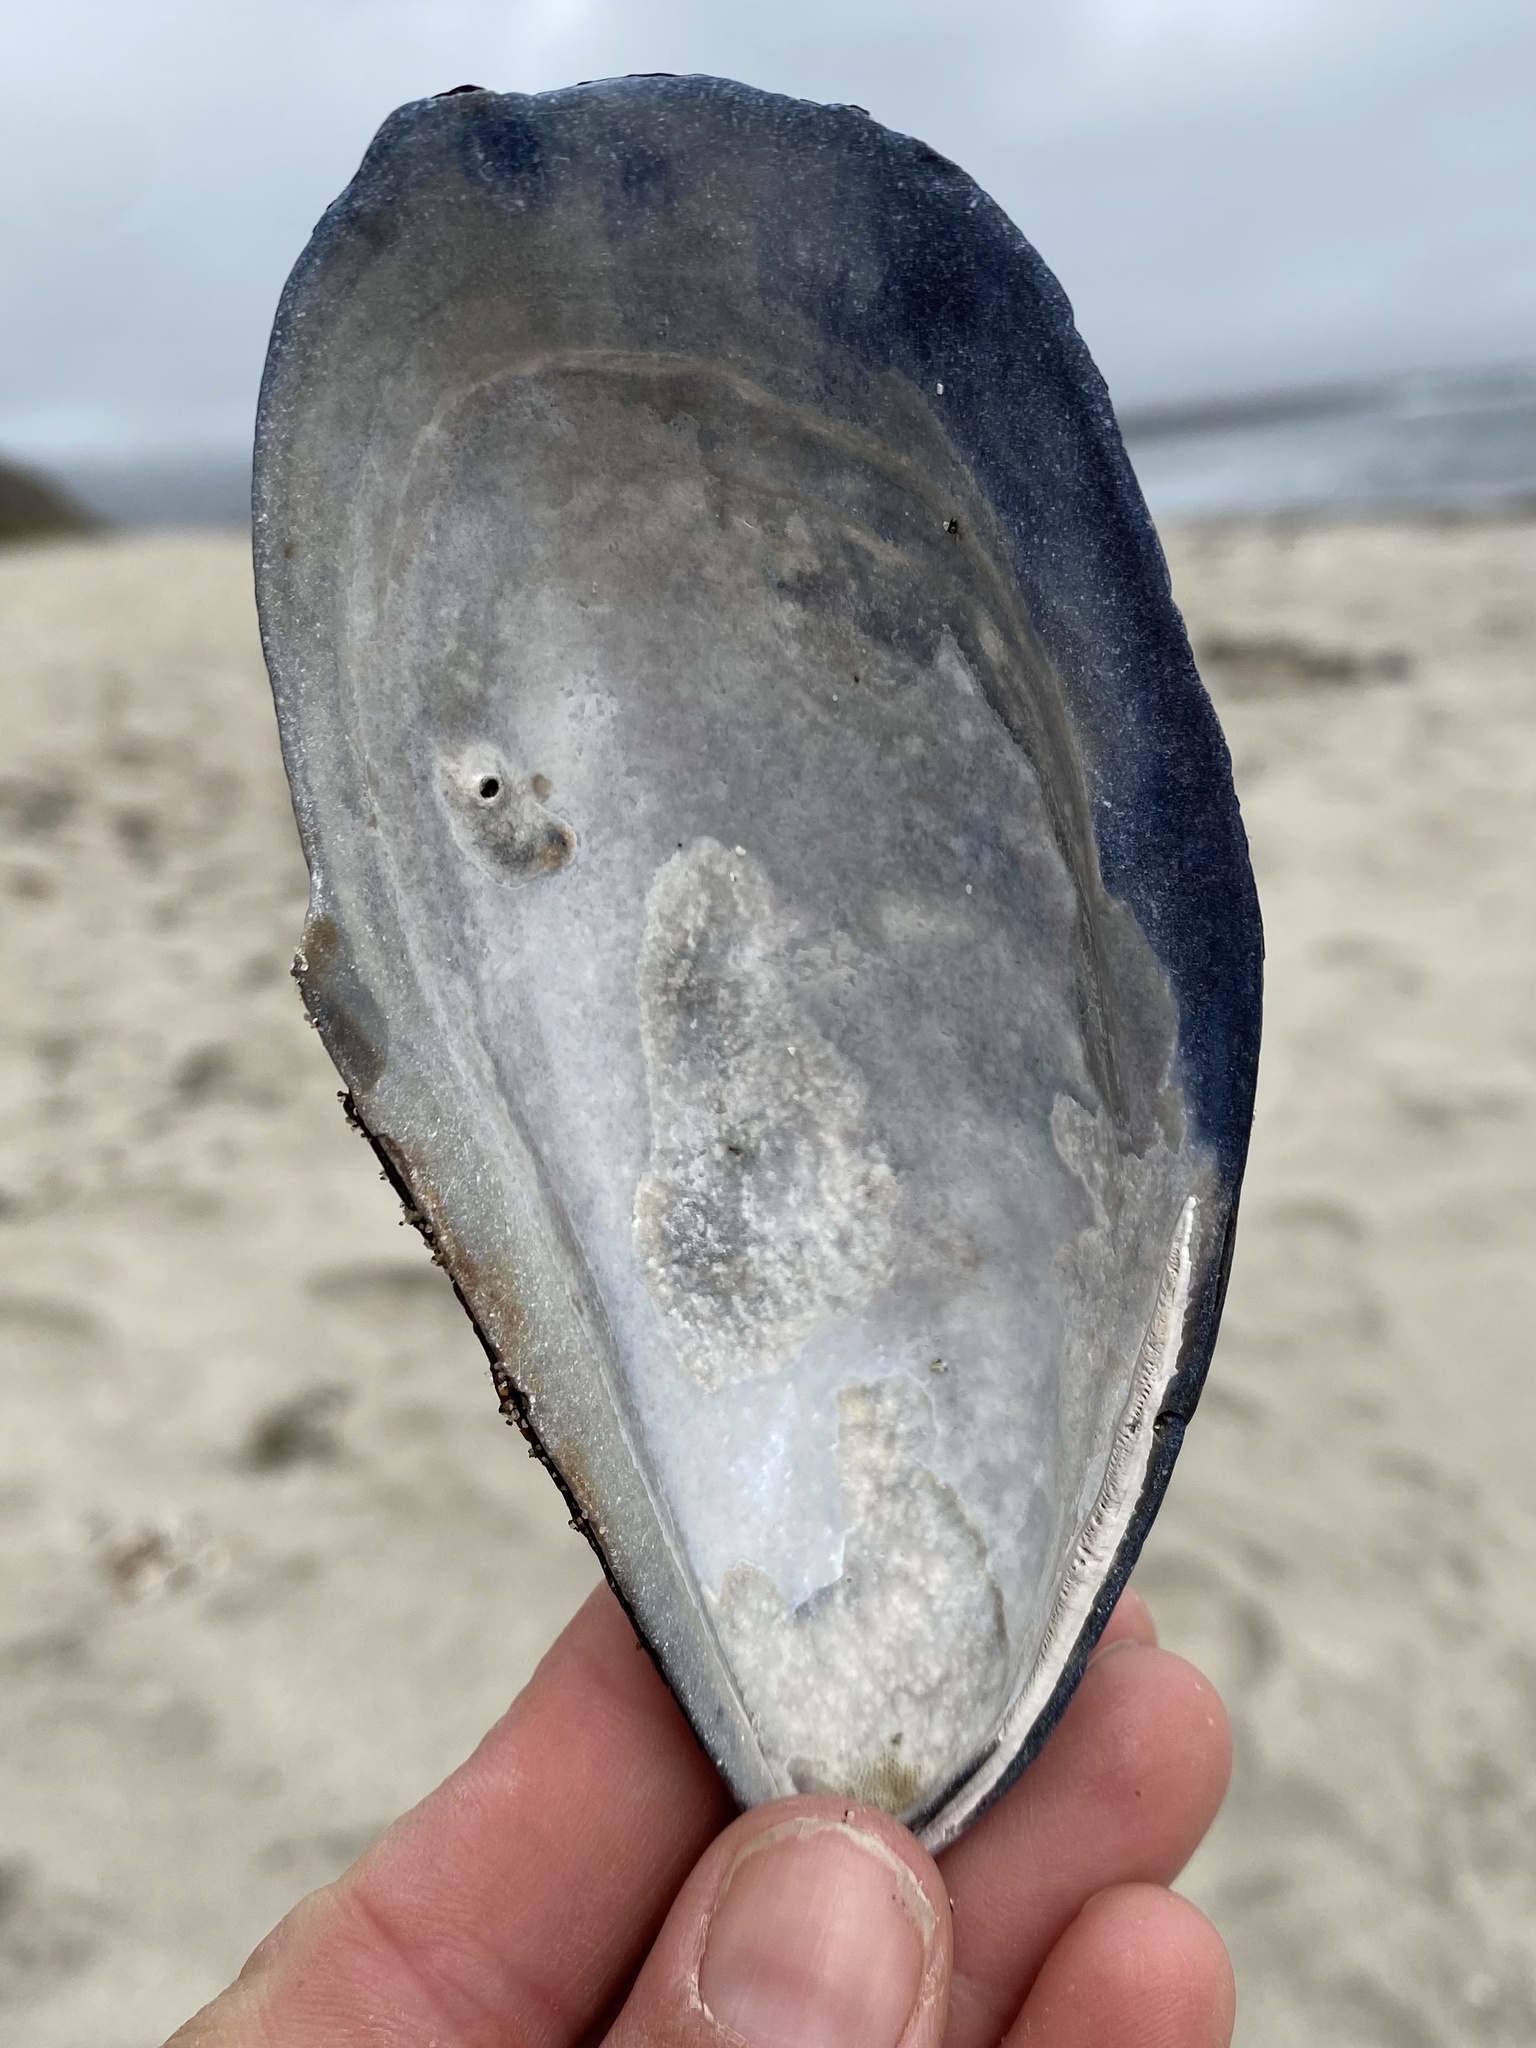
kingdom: Animalia
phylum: Mollusca
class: Bivalvia
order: Mytilida
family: Mytilidae
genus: Mytilus
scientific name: Mytilus californianus
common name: California mussel
